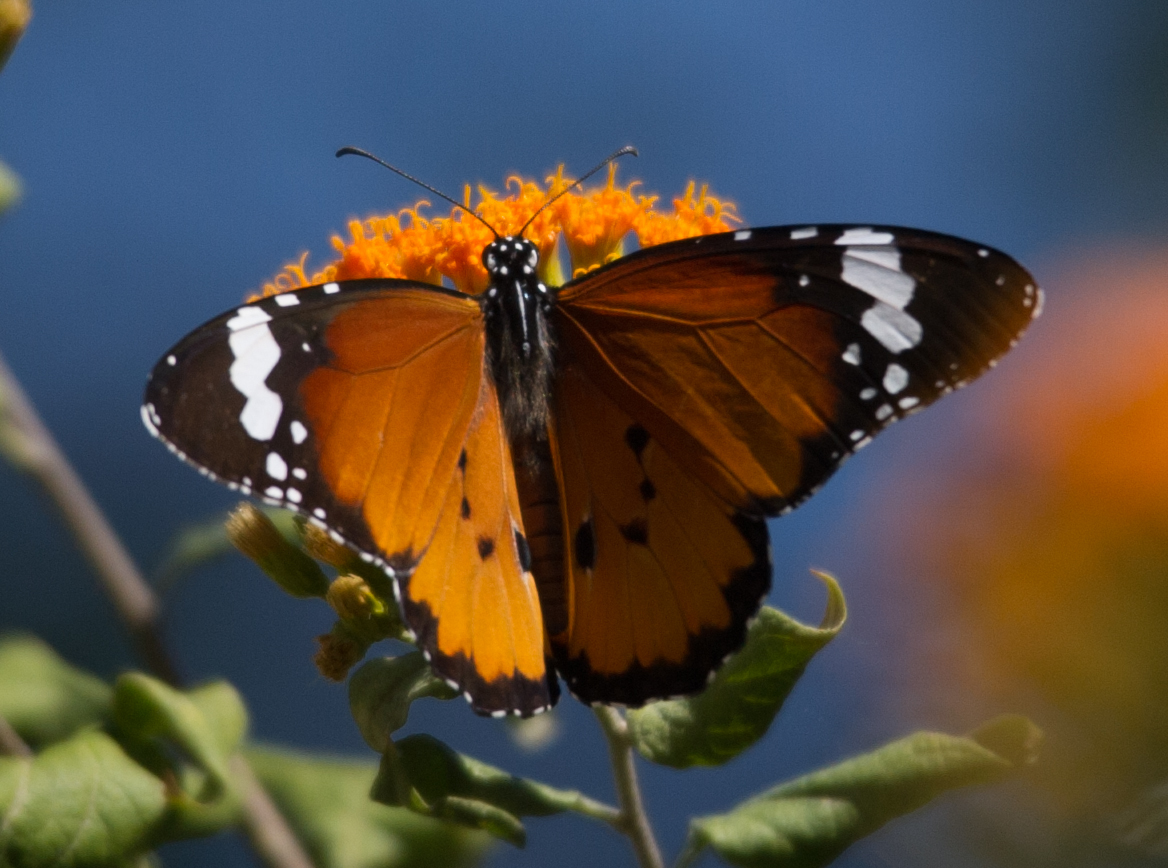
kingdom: Animalia
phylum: Arthropoda
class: Insecta
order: Lepidoptera
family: Nymphalidae
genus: Danaus
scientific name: Danaus chrysippus
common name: Plain tiger
